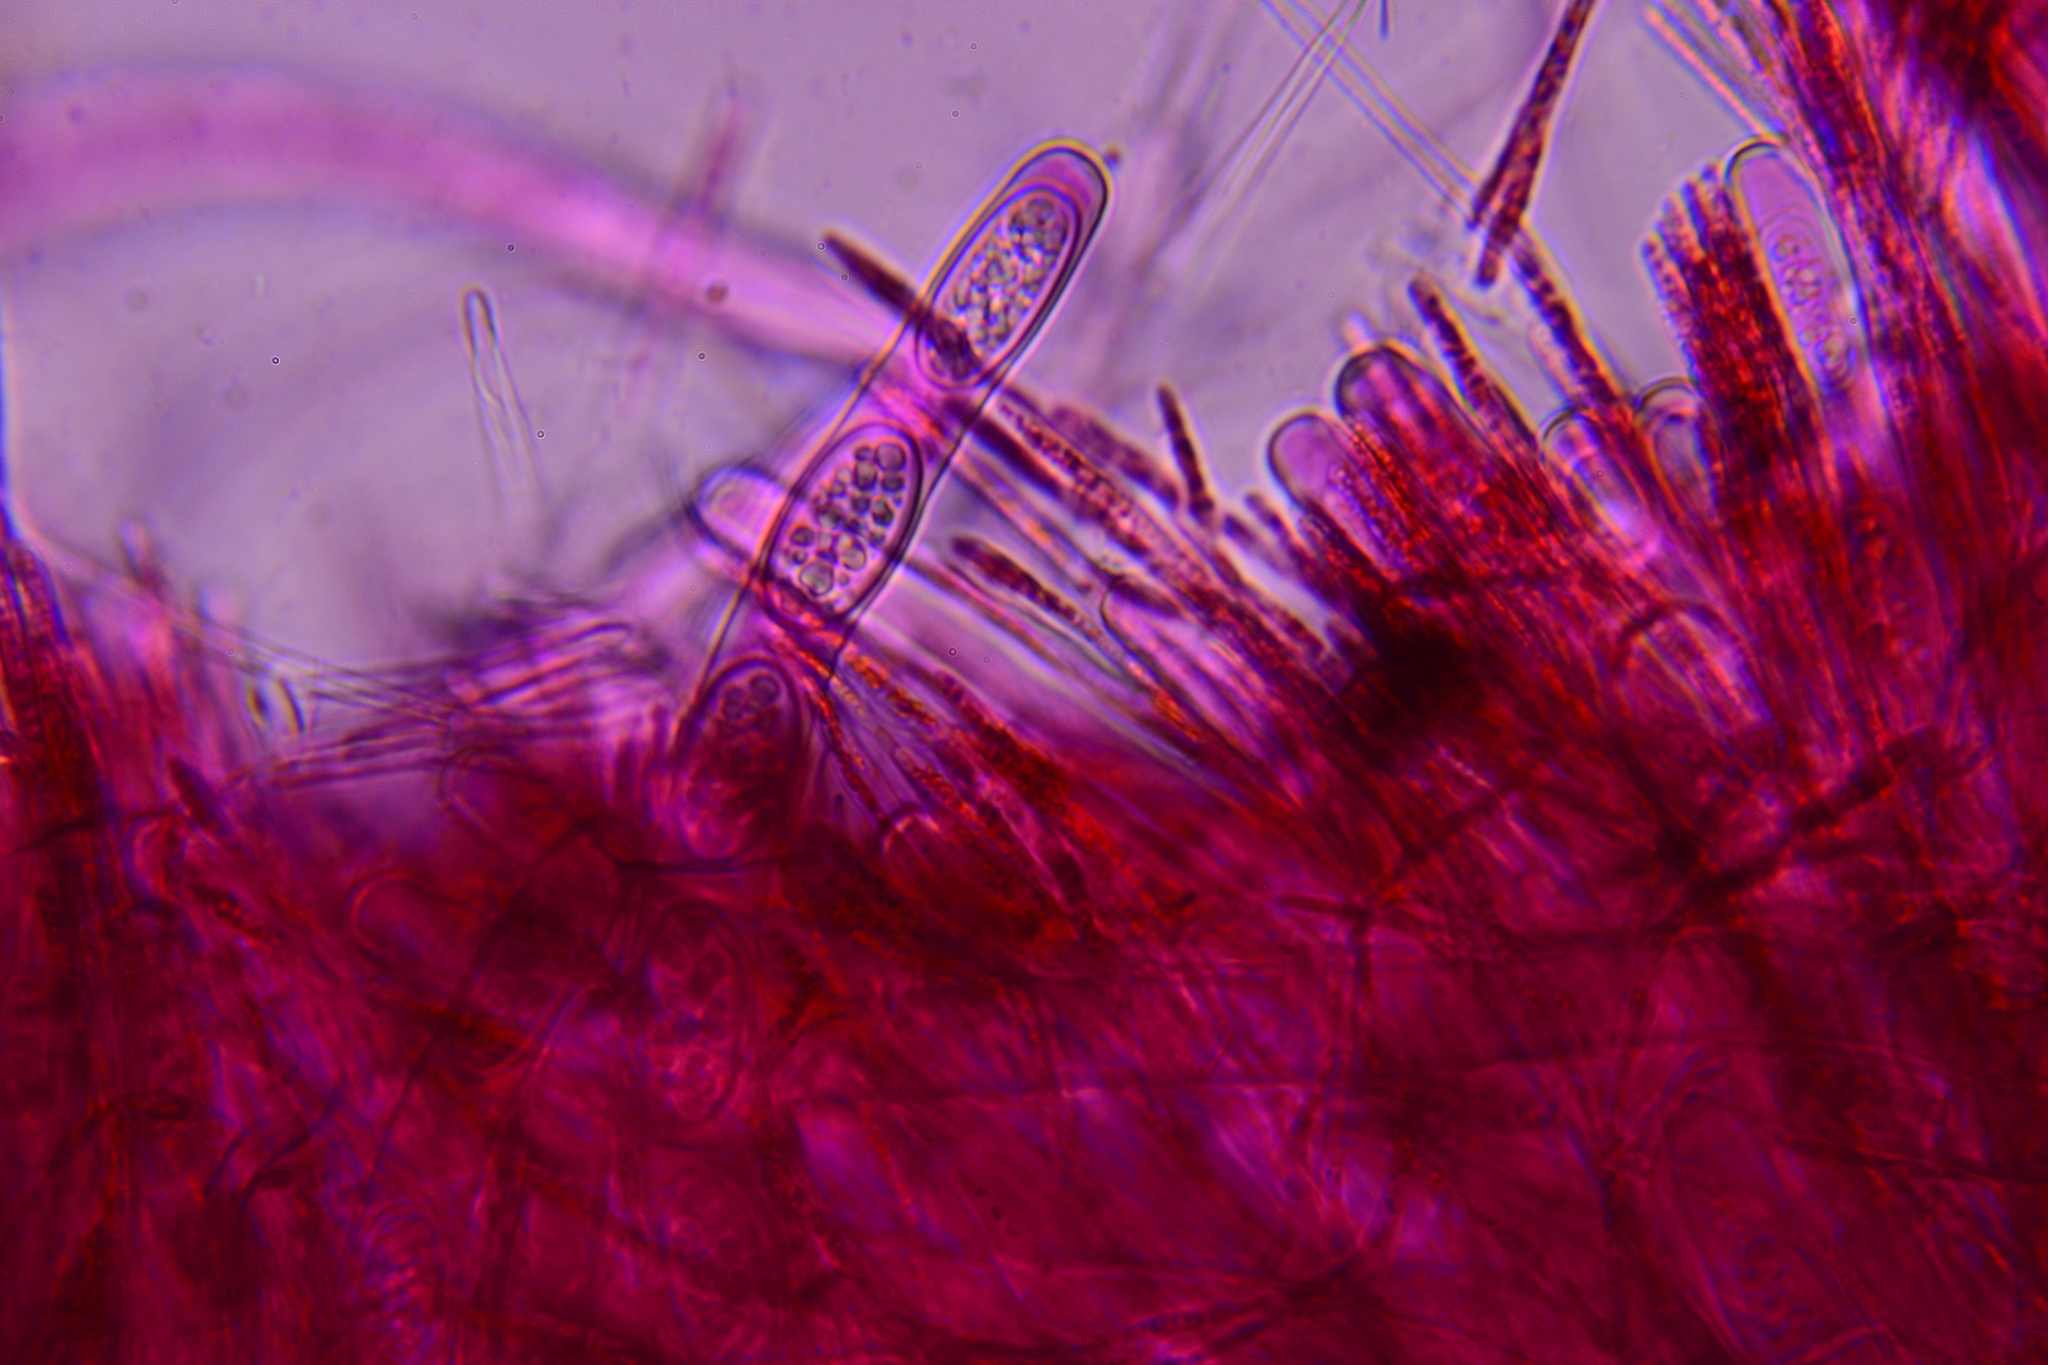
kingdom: Fungi
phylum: Ascomycota
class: Pezizomycetes
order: Pezizales
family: Sarcoscyphaceae
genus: Sarcoscypha
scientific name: Sarcoscypha austriaca
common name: Scarlet elfcup
